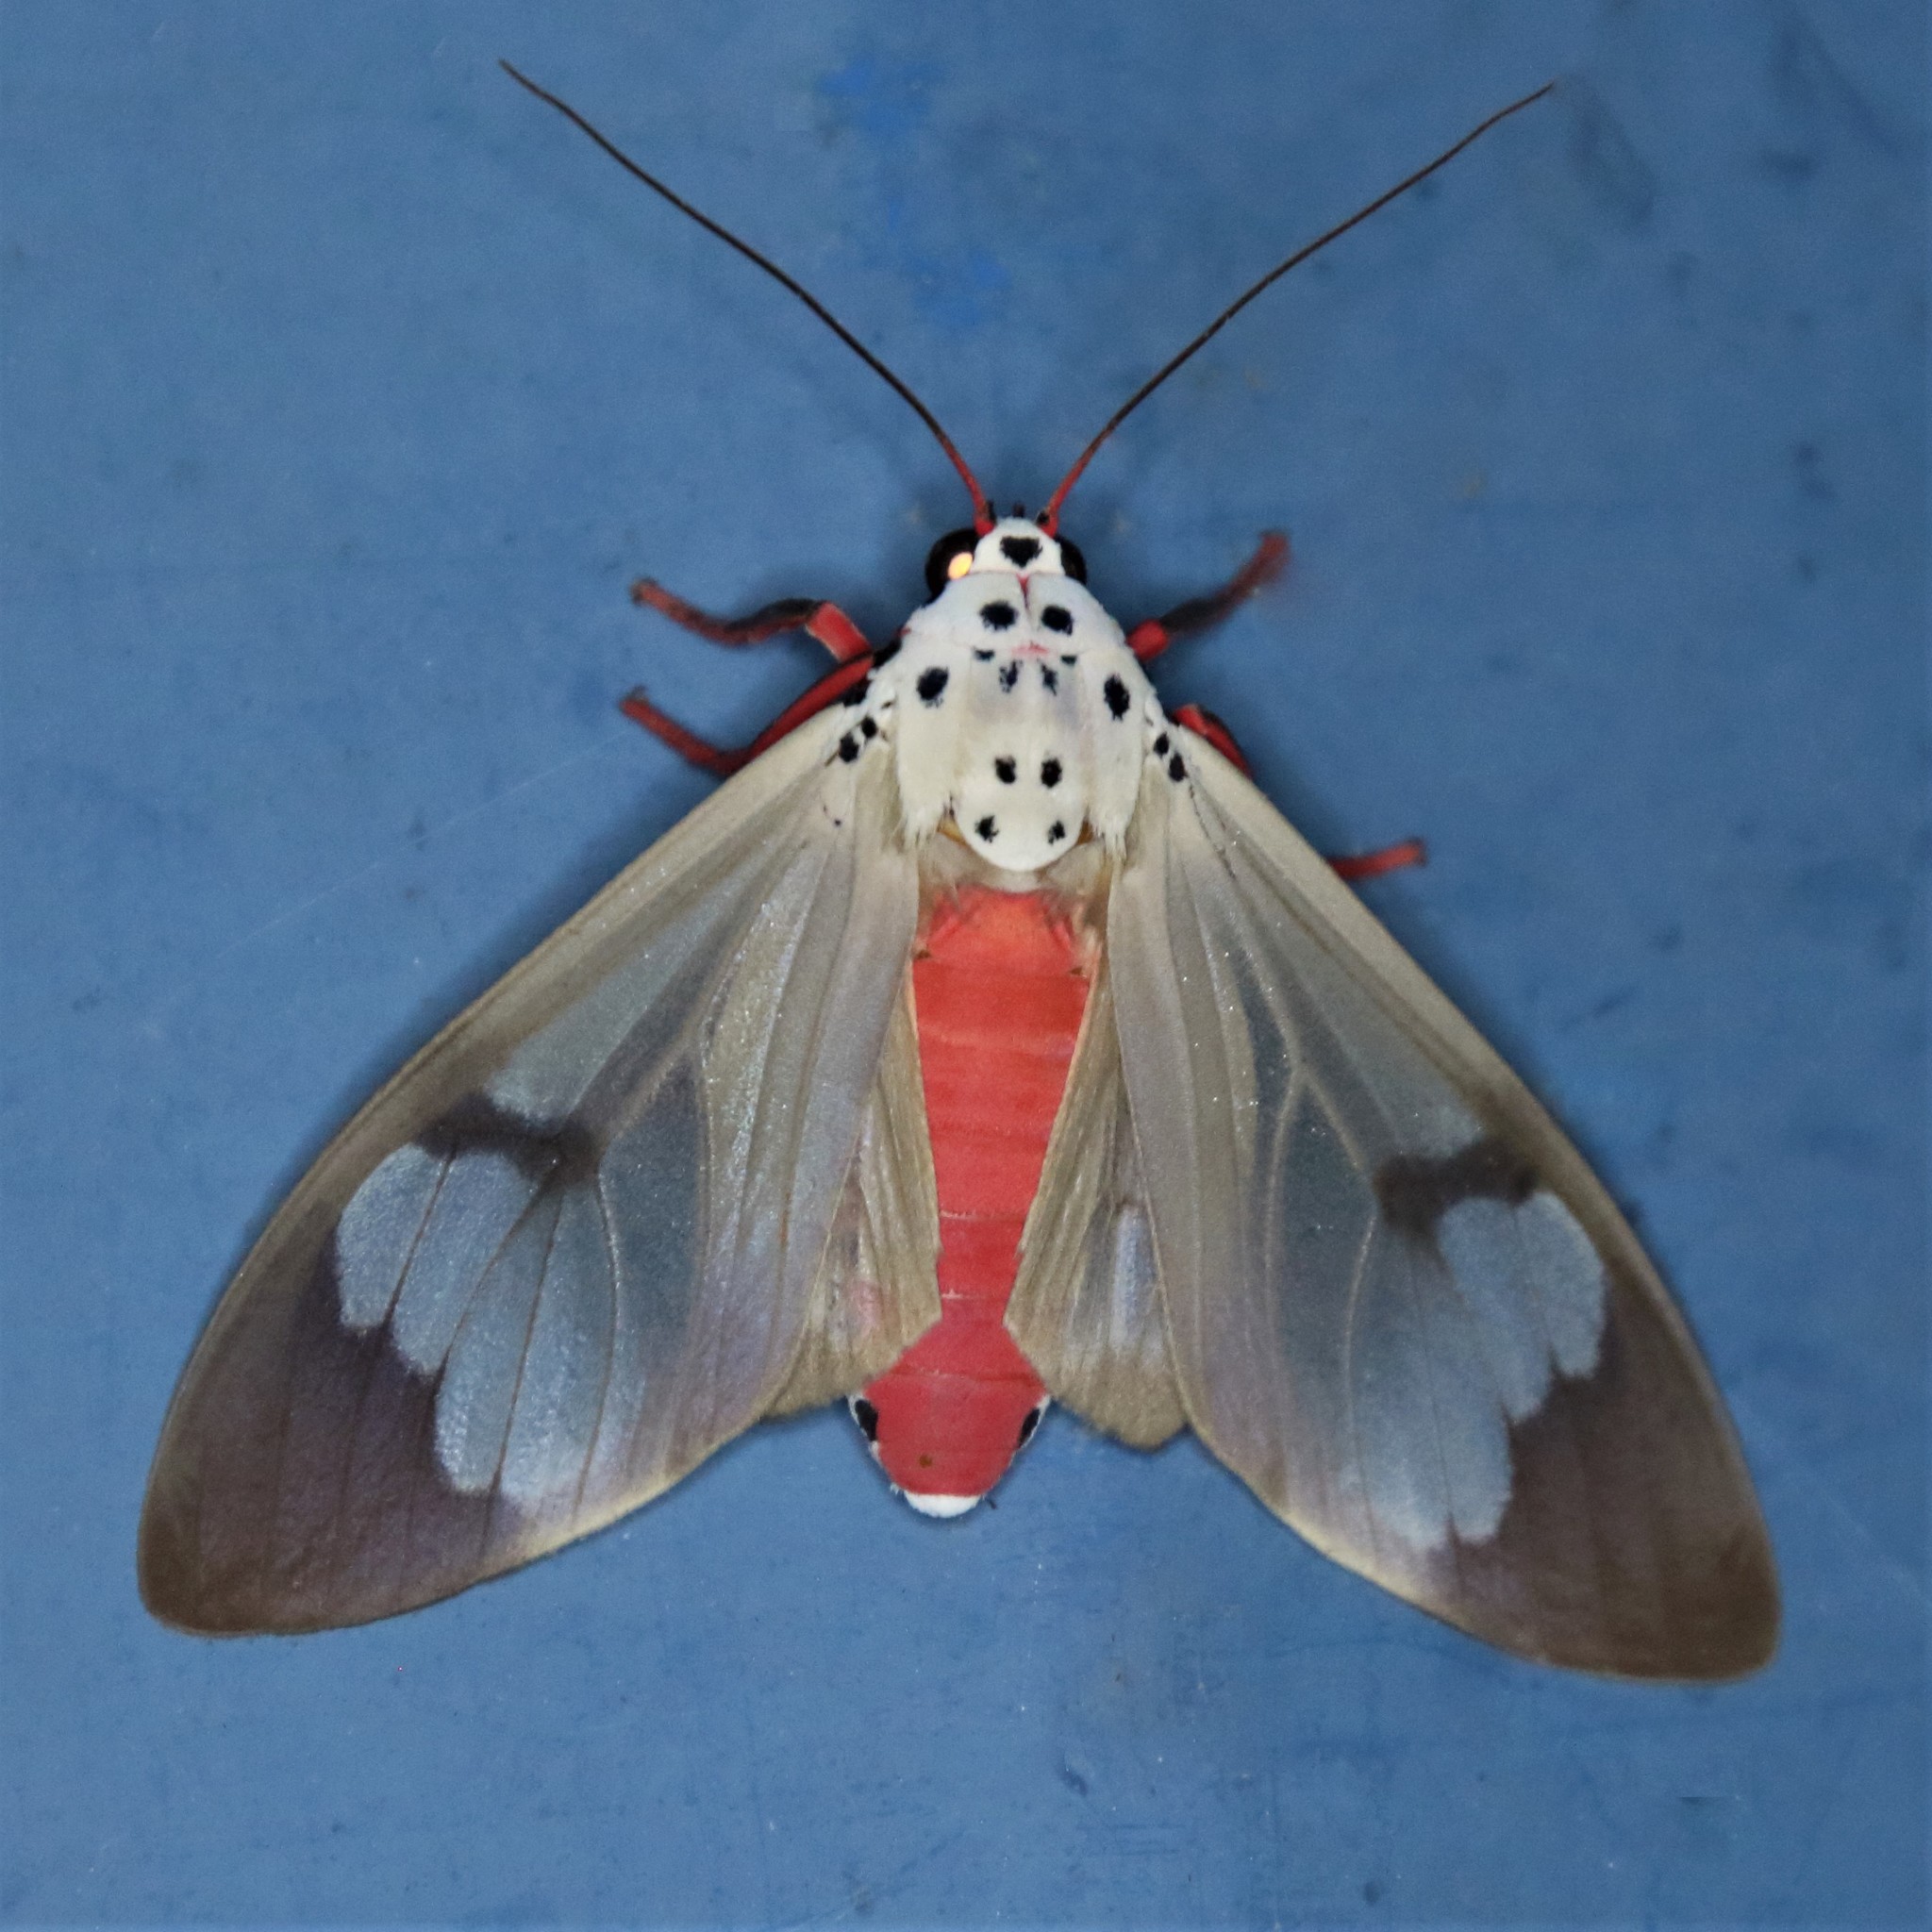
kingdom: Animalia
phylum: Arthropoda
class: Insecta
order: Lepidoptera
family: Erebidae
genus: Amerila
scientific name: Amerila astreus
